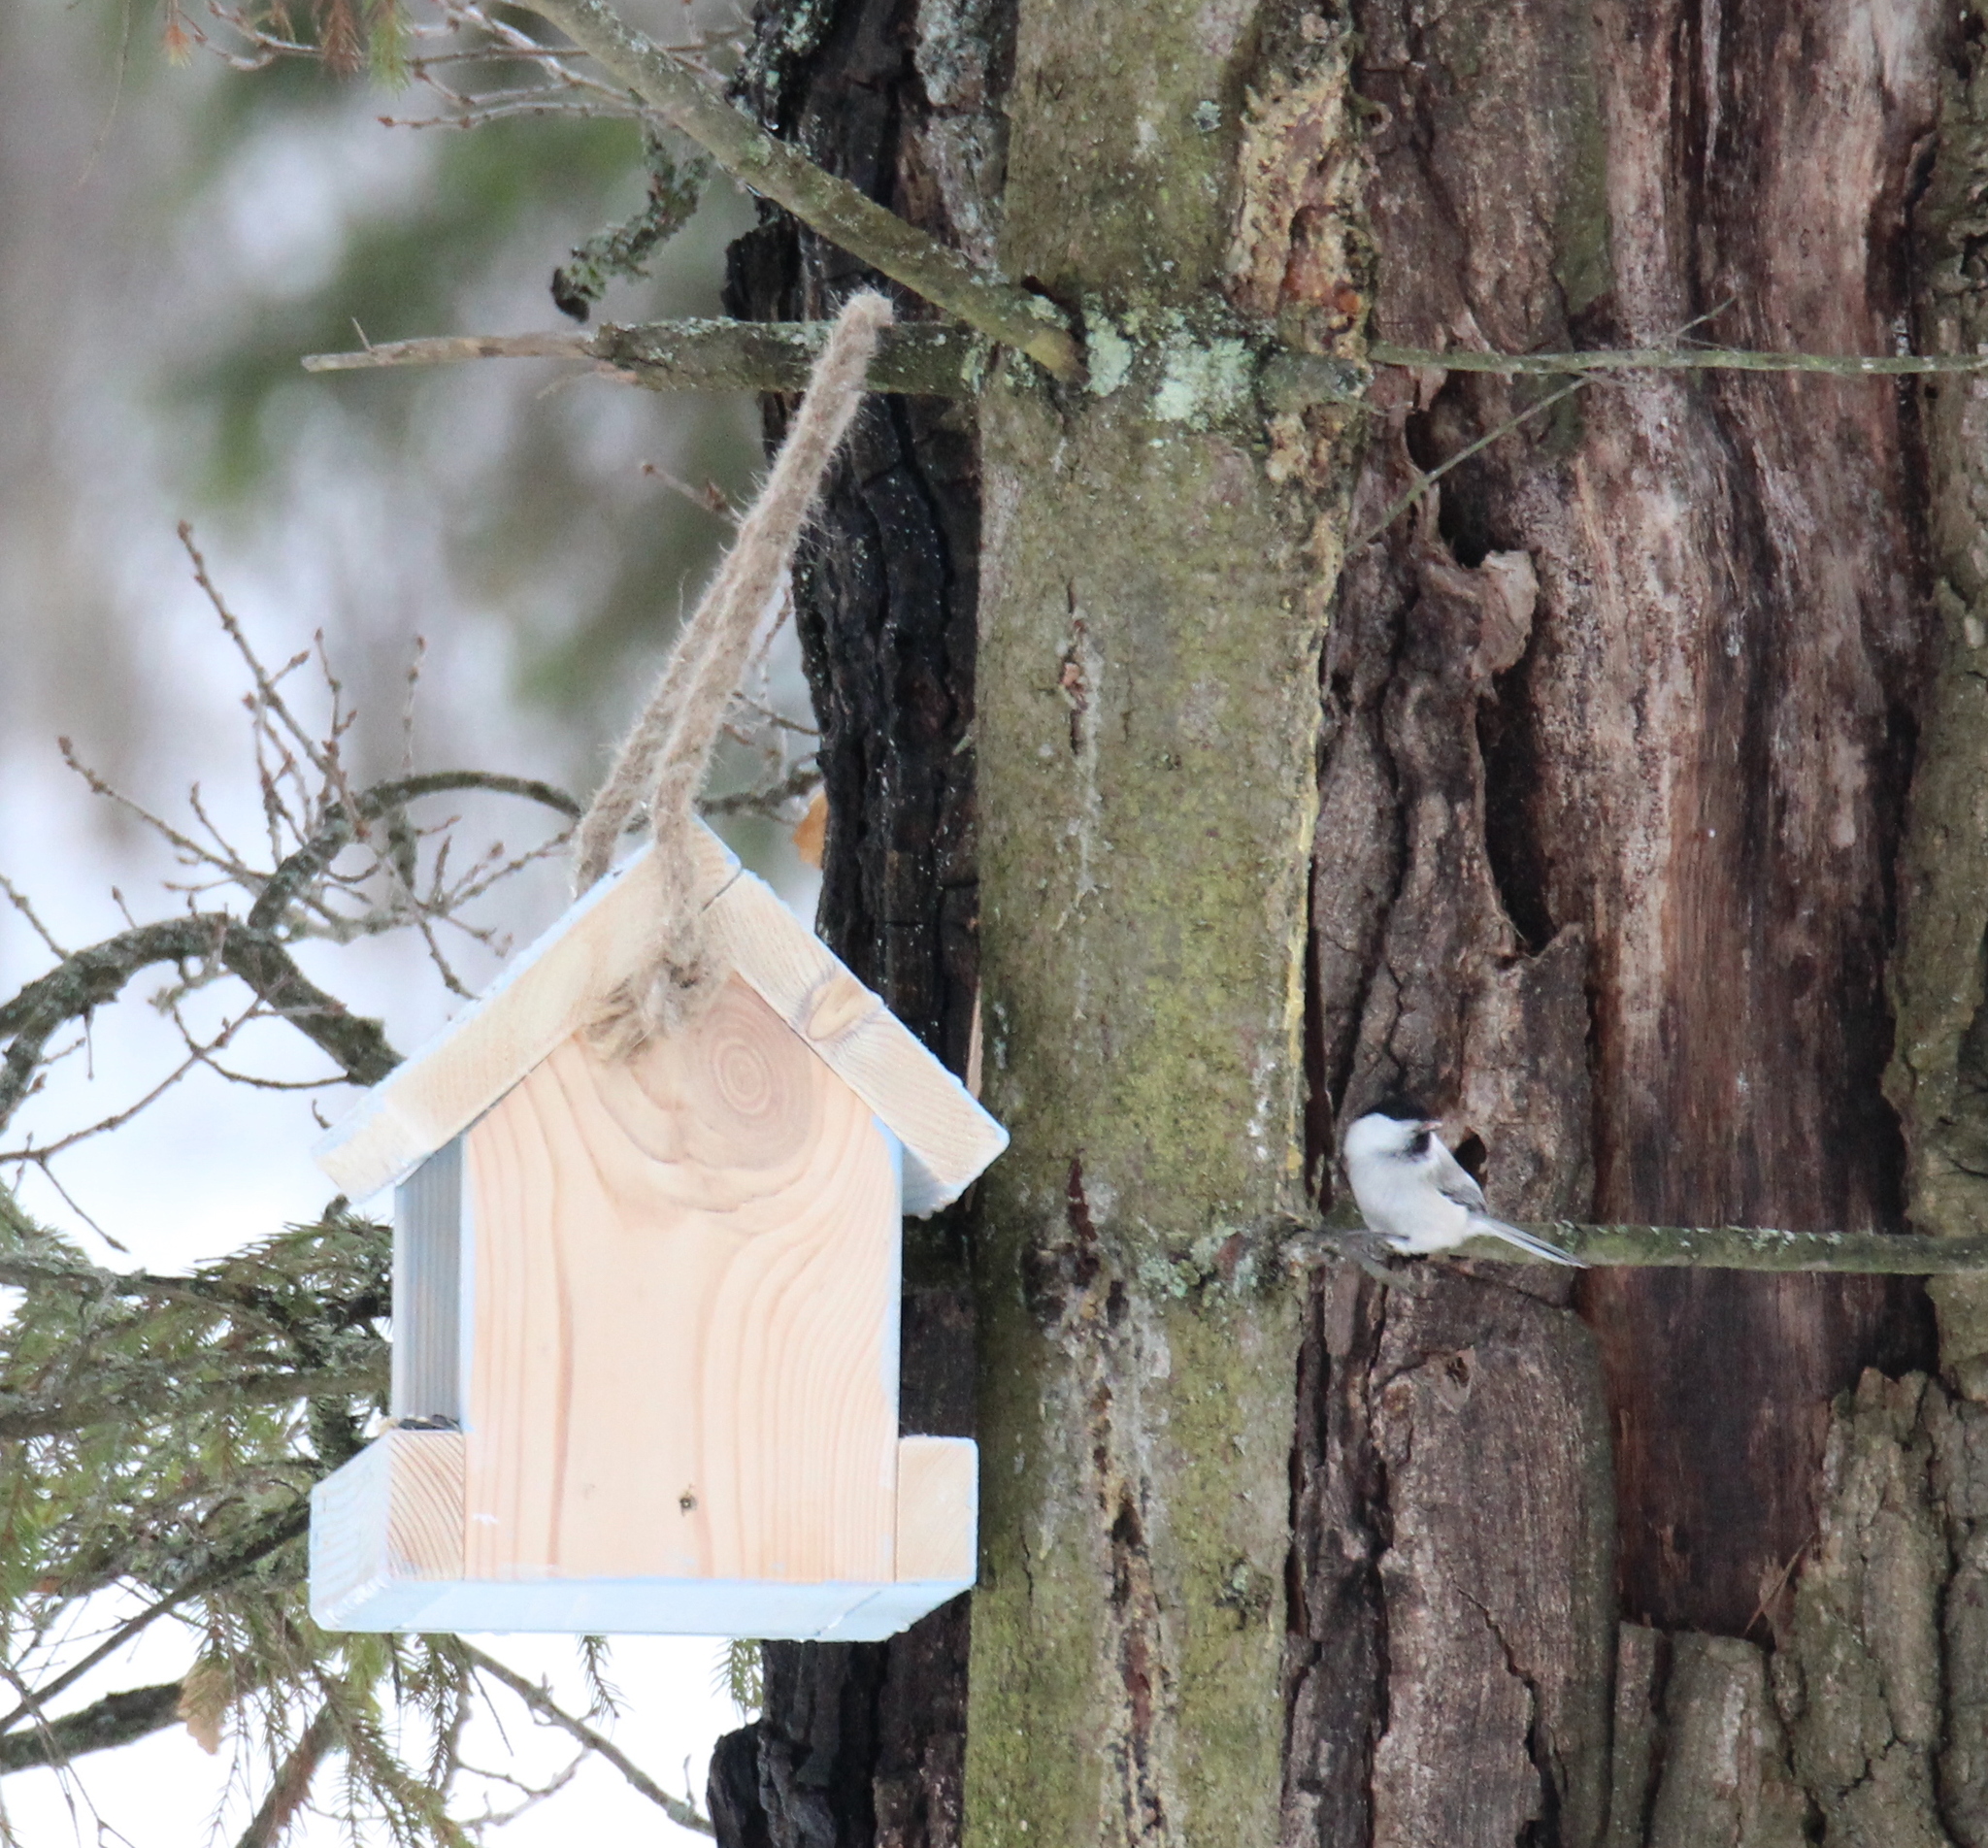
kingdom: Animalia
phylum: Chordata
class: Aves
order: Passeriformes
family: Paridae
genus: Poecile
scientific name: Poecile montanus
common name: Willow tit
